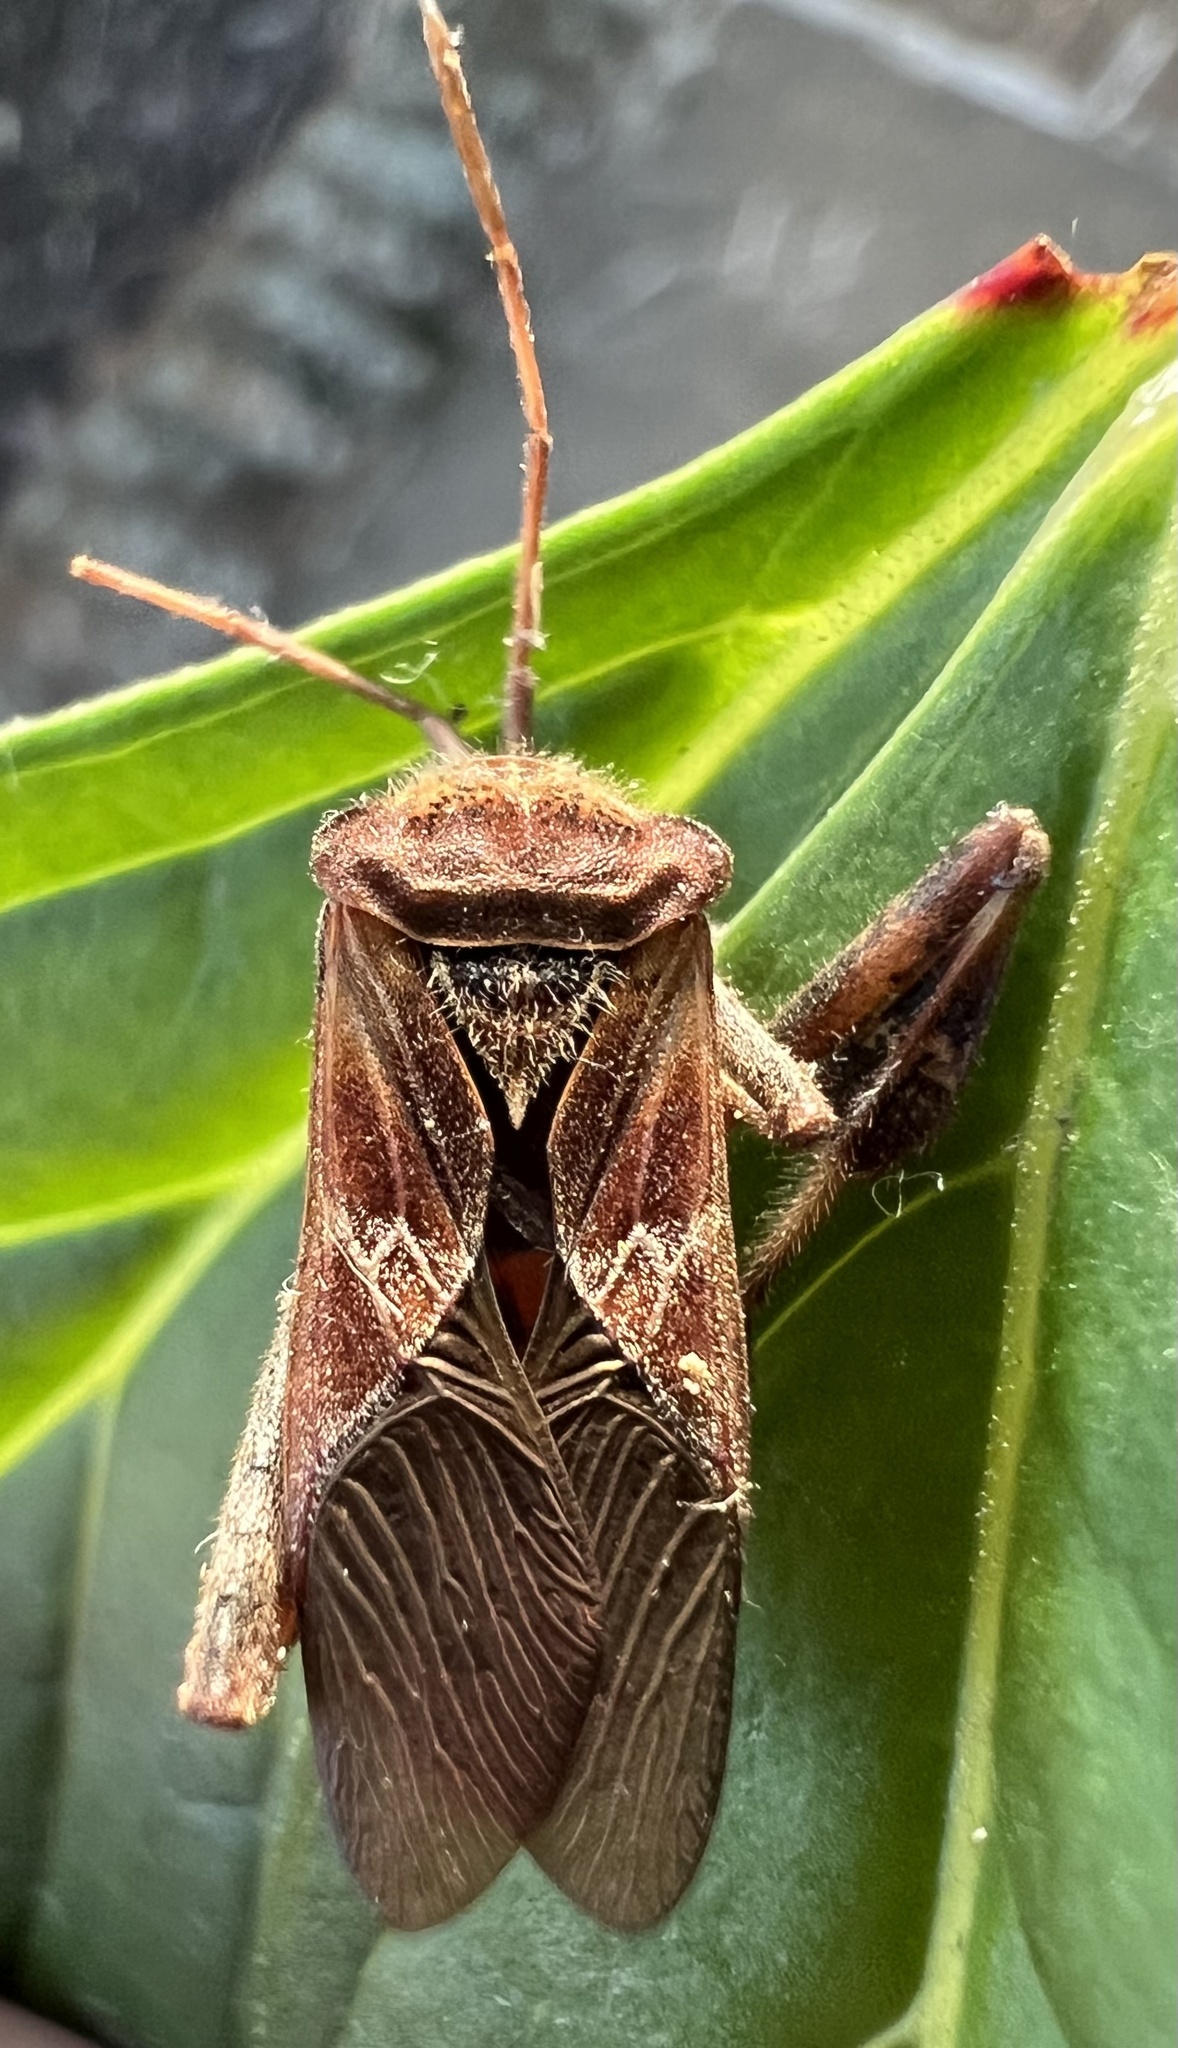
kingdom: Animalia
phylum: Arthropoda
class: Insecta
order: Hemiptera
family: Coreidae
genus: Leptoglossus
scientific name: Leptoglossus occidentalis
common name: Western conifer-seed bug
